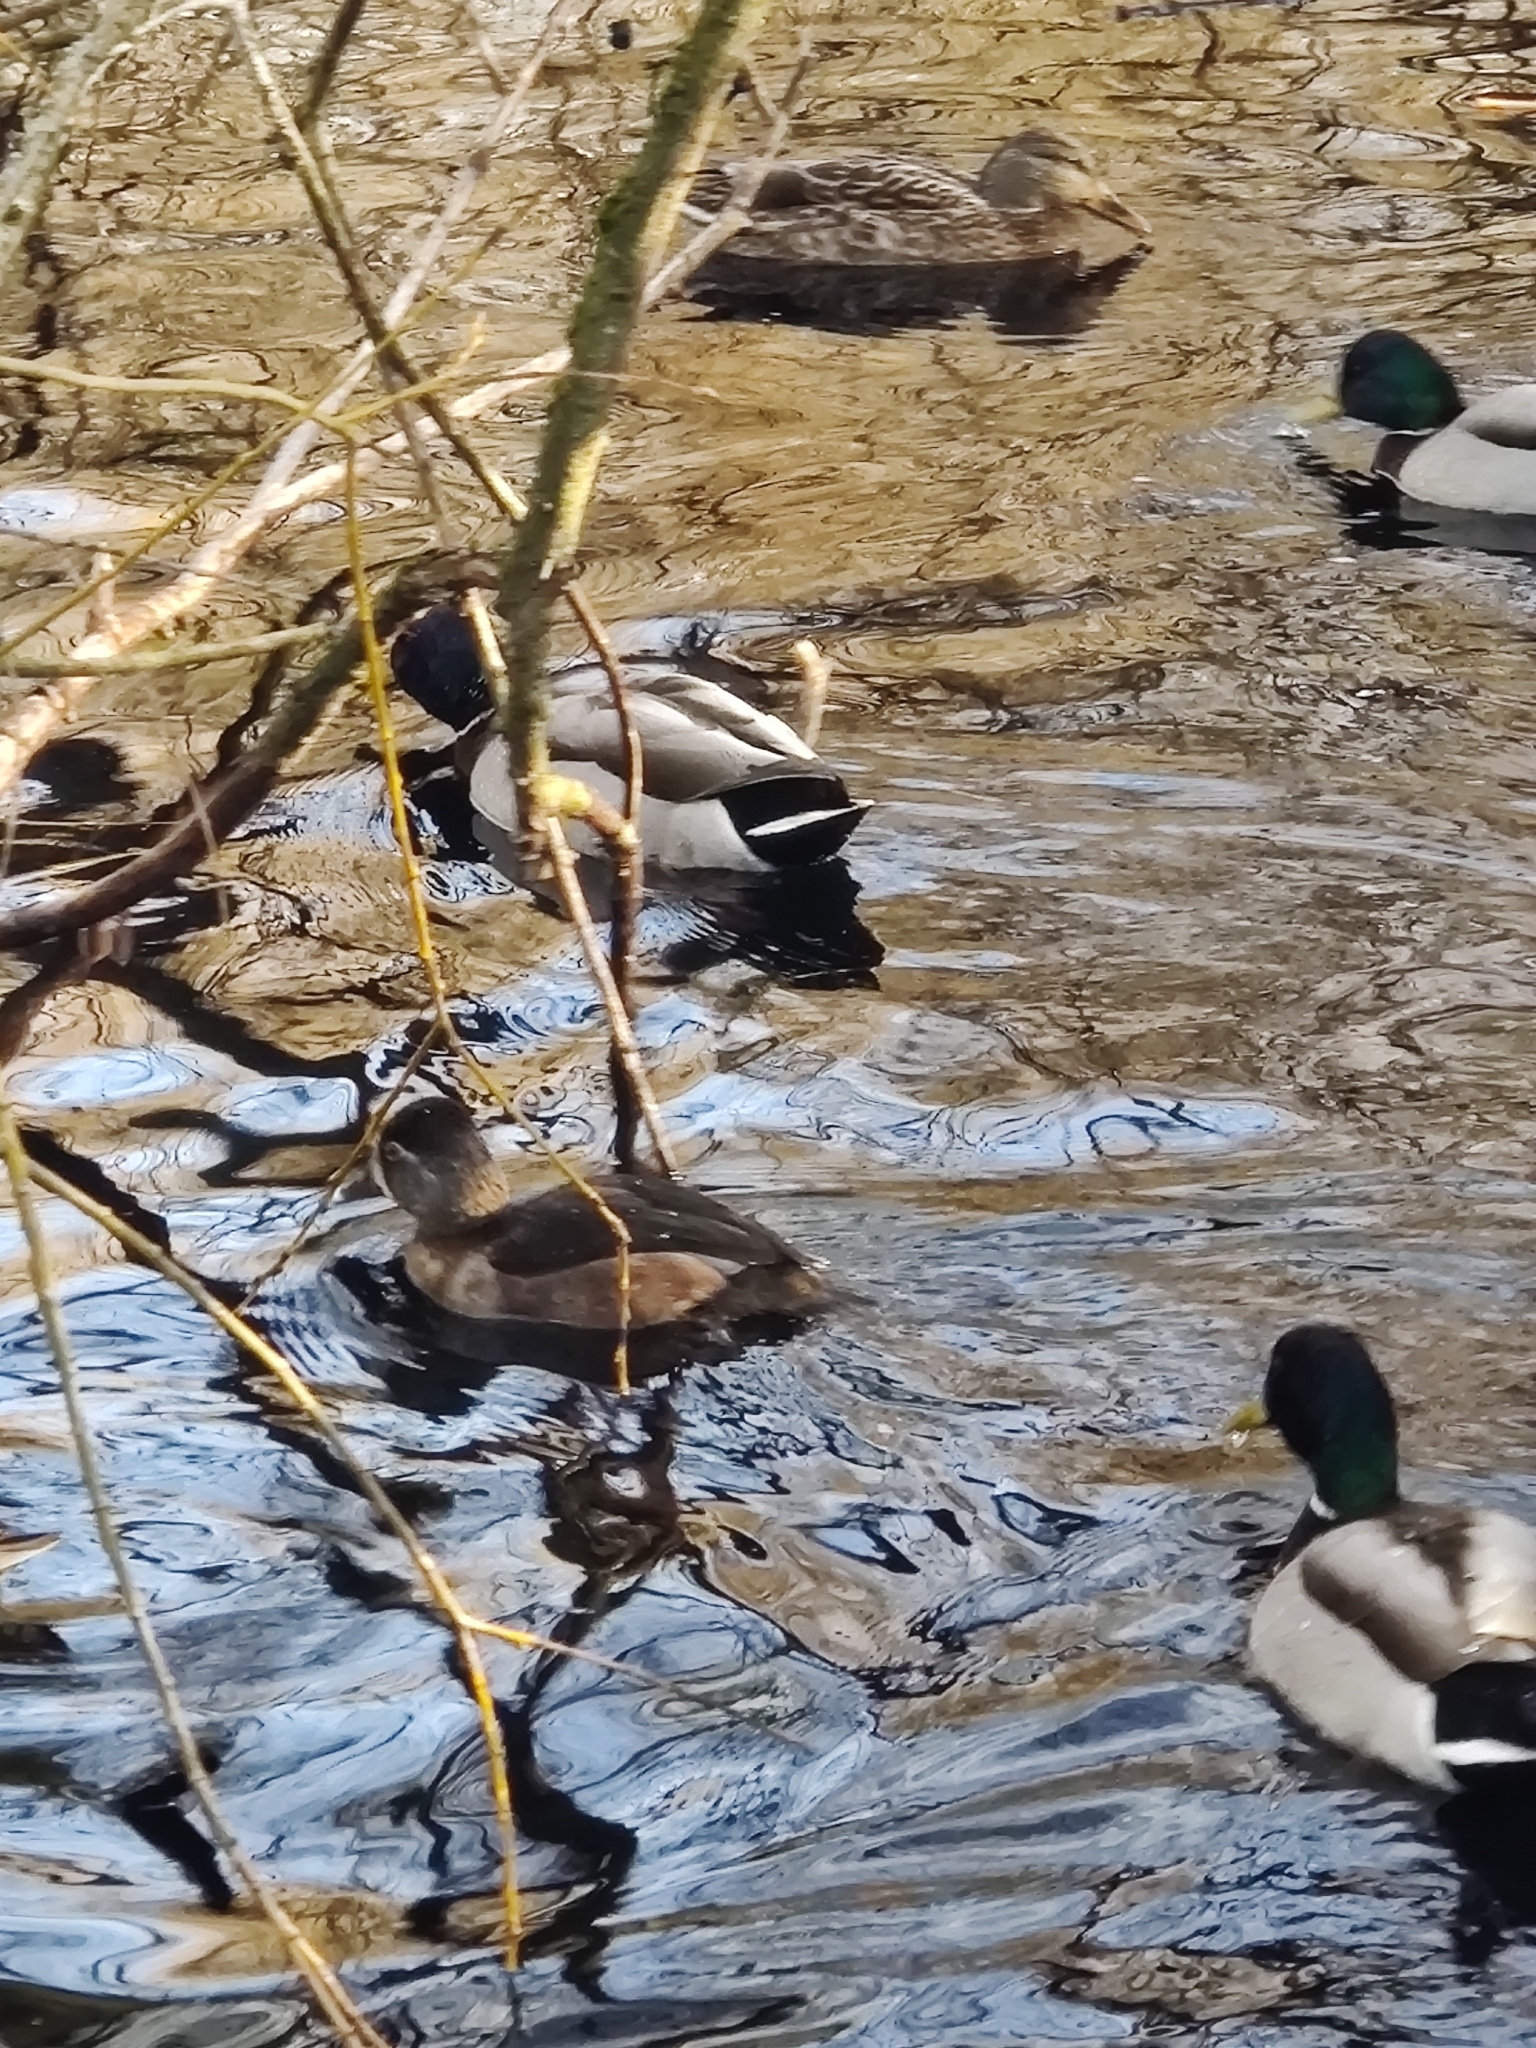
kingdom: Animalia
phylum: Chordata
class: Aves
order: Anseriformes
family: Anatidae
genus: Aythya
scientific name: Aythya collaris
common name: Ring-necked duck
